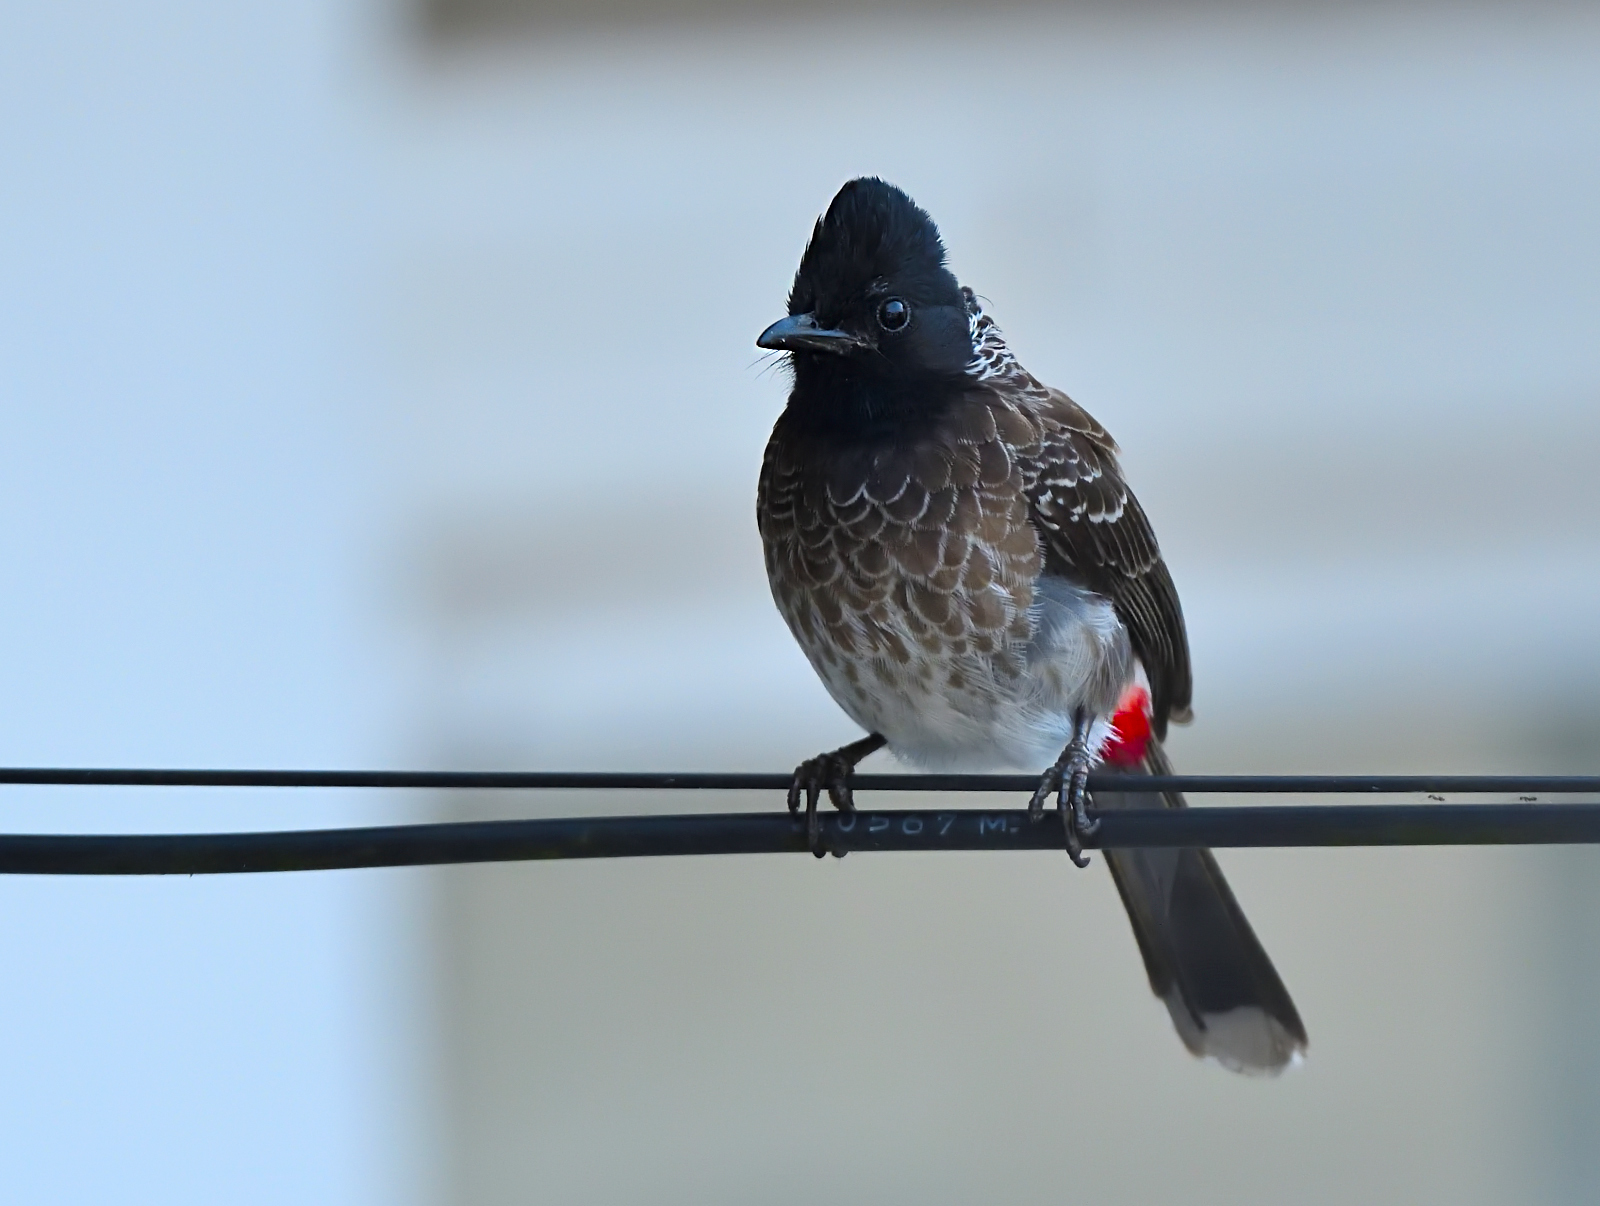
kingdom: Animalia
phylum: Chordata
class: Aves
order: Passeriformes
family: Pycnonotidae
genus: Pycnonotus
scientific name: Pycnonotus cafer
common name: Red-vented bulbul
